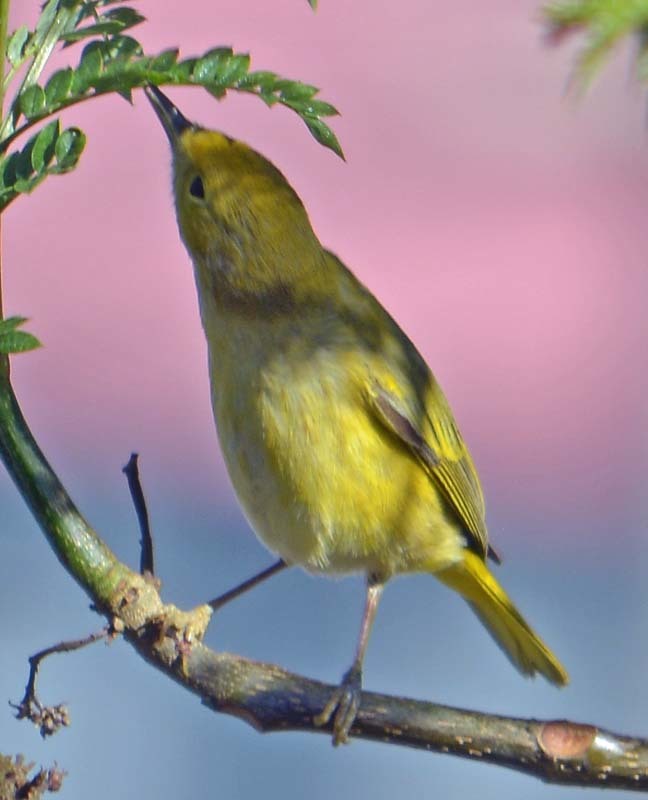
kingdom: Animalia
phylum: Chordata
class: Aves
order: Passeriformes
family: Parulidae
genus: Setophaga
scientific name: Setophaga petechia
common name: Yellow warbler
